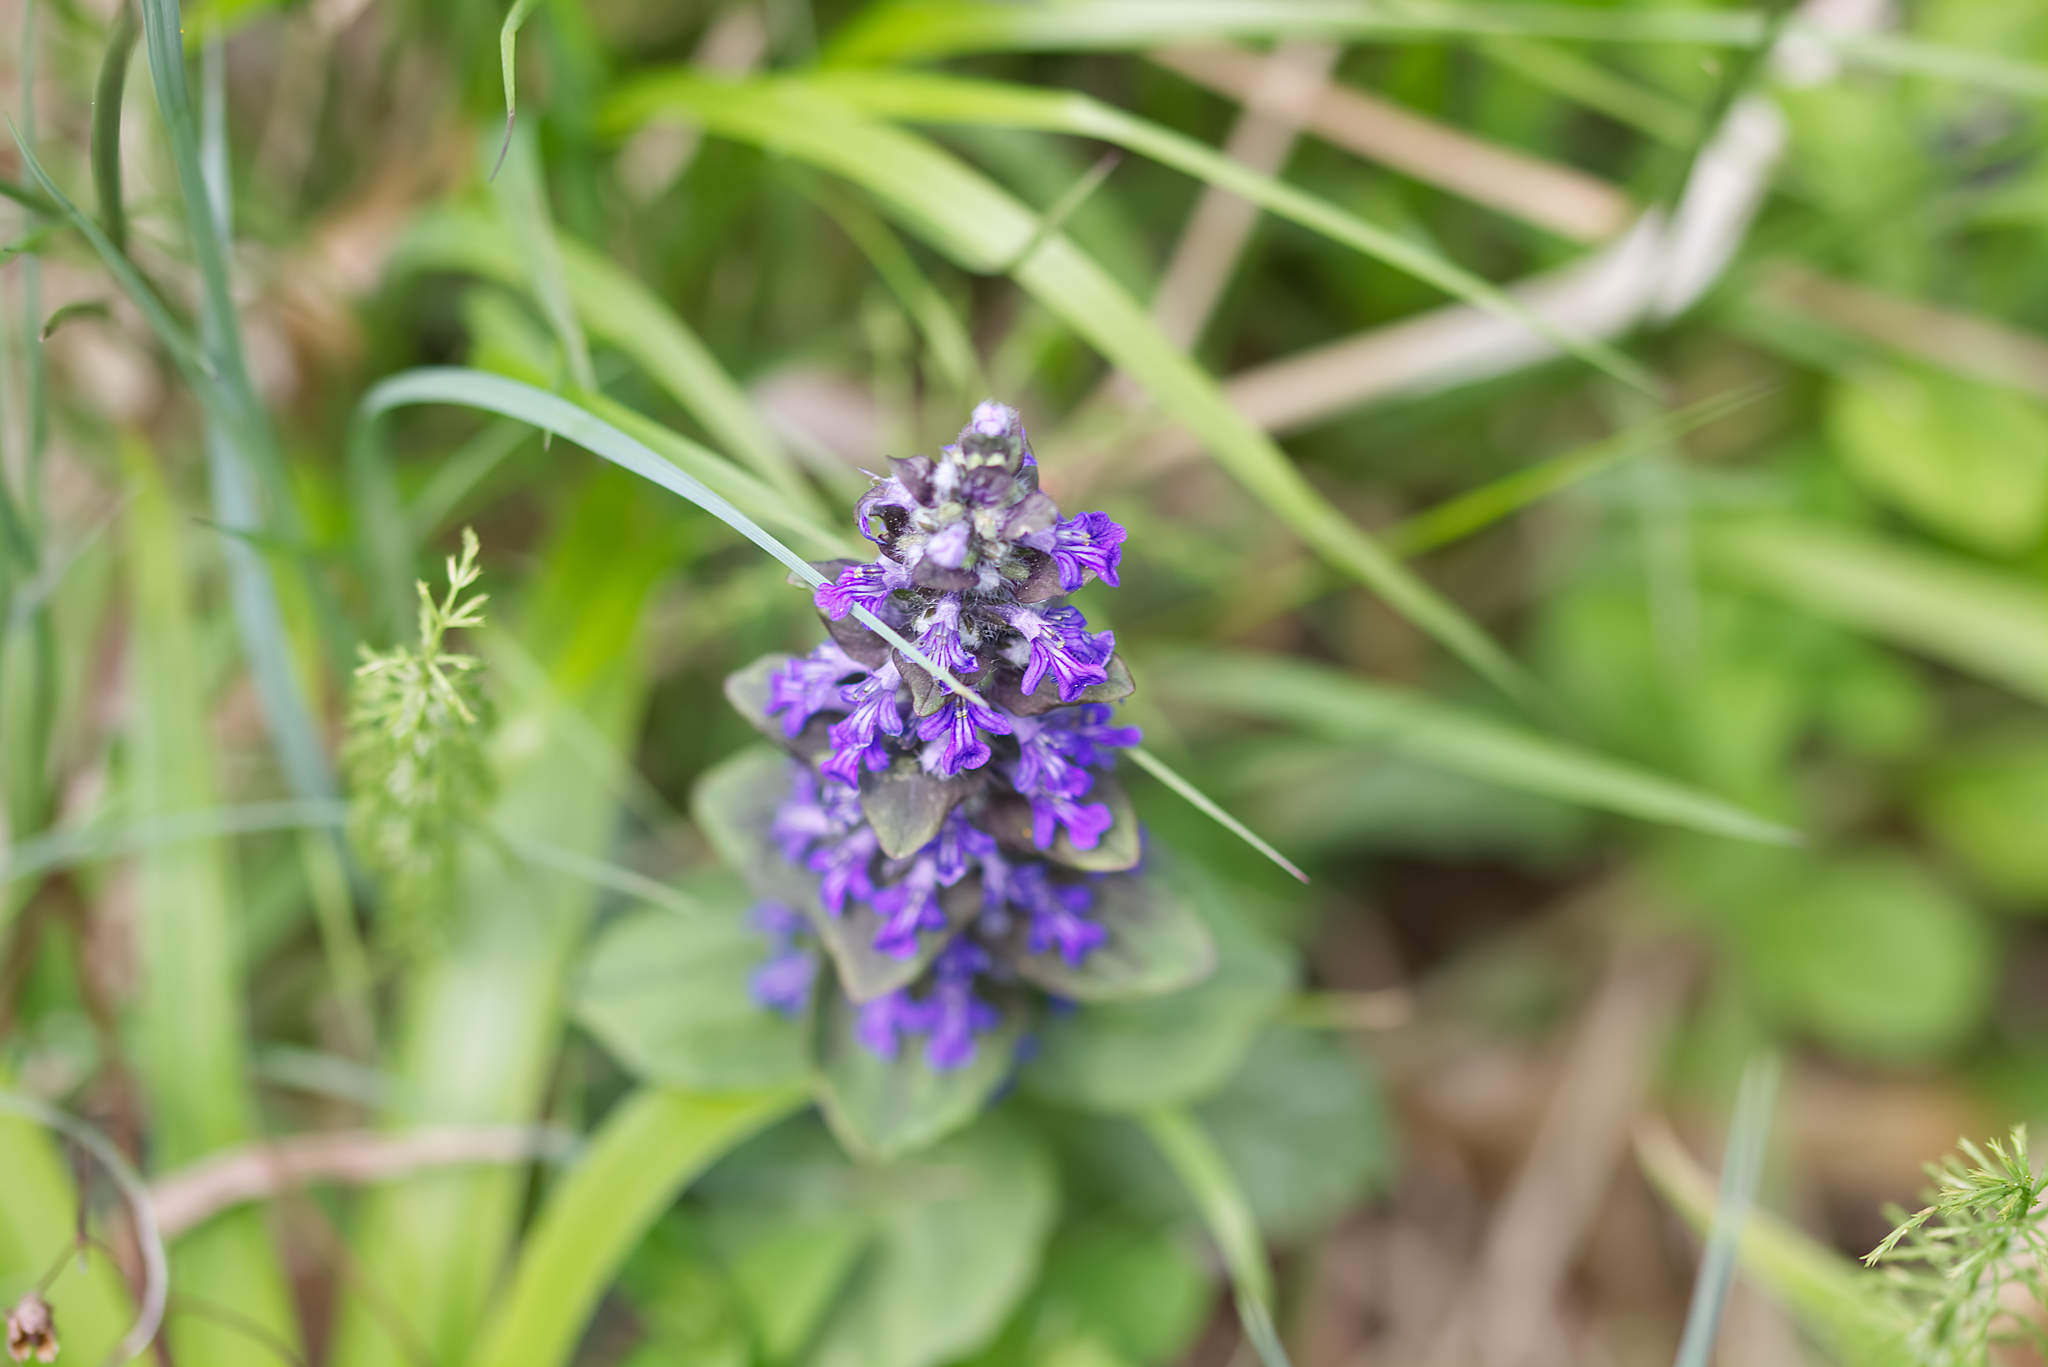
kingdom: Plantae
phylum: Tracheophyta
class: Magnoliopsida
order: Lamiales
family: Lamiaceae
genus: Ajuga
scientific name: Ajuga reptans
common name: Bugle
